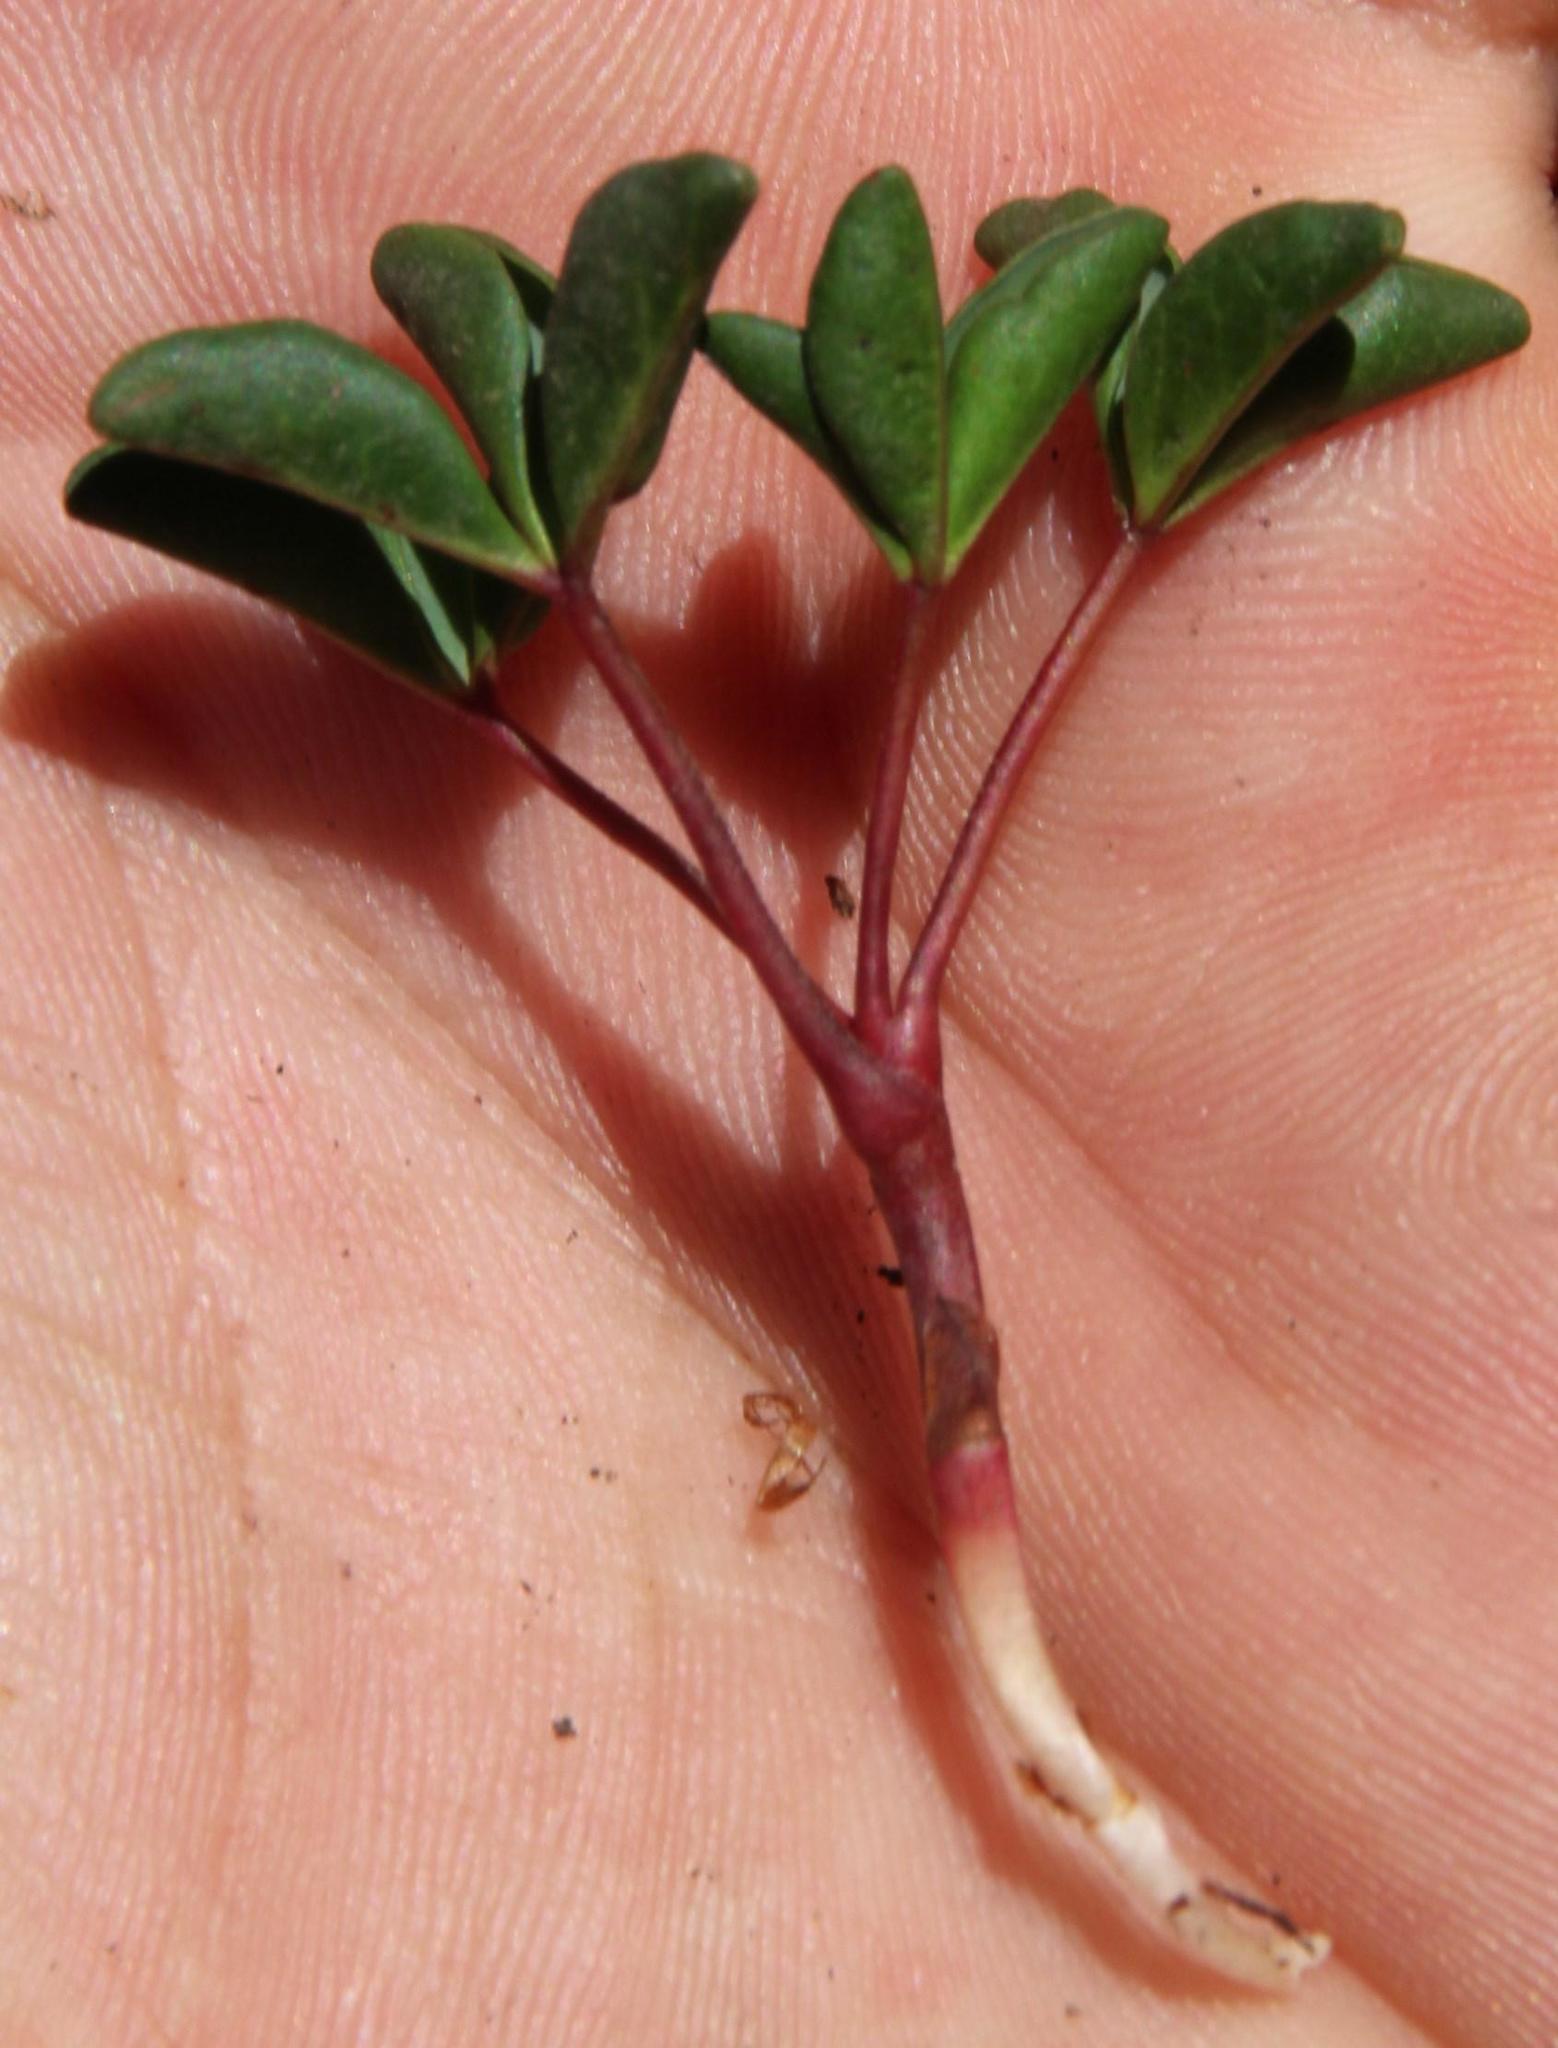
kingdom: Plantae
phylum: Tracheophyta
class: Magnoliopsida
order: Oxalidales
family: Oxalidaceae
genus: Oxalis
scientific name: Oxalis stokoei
